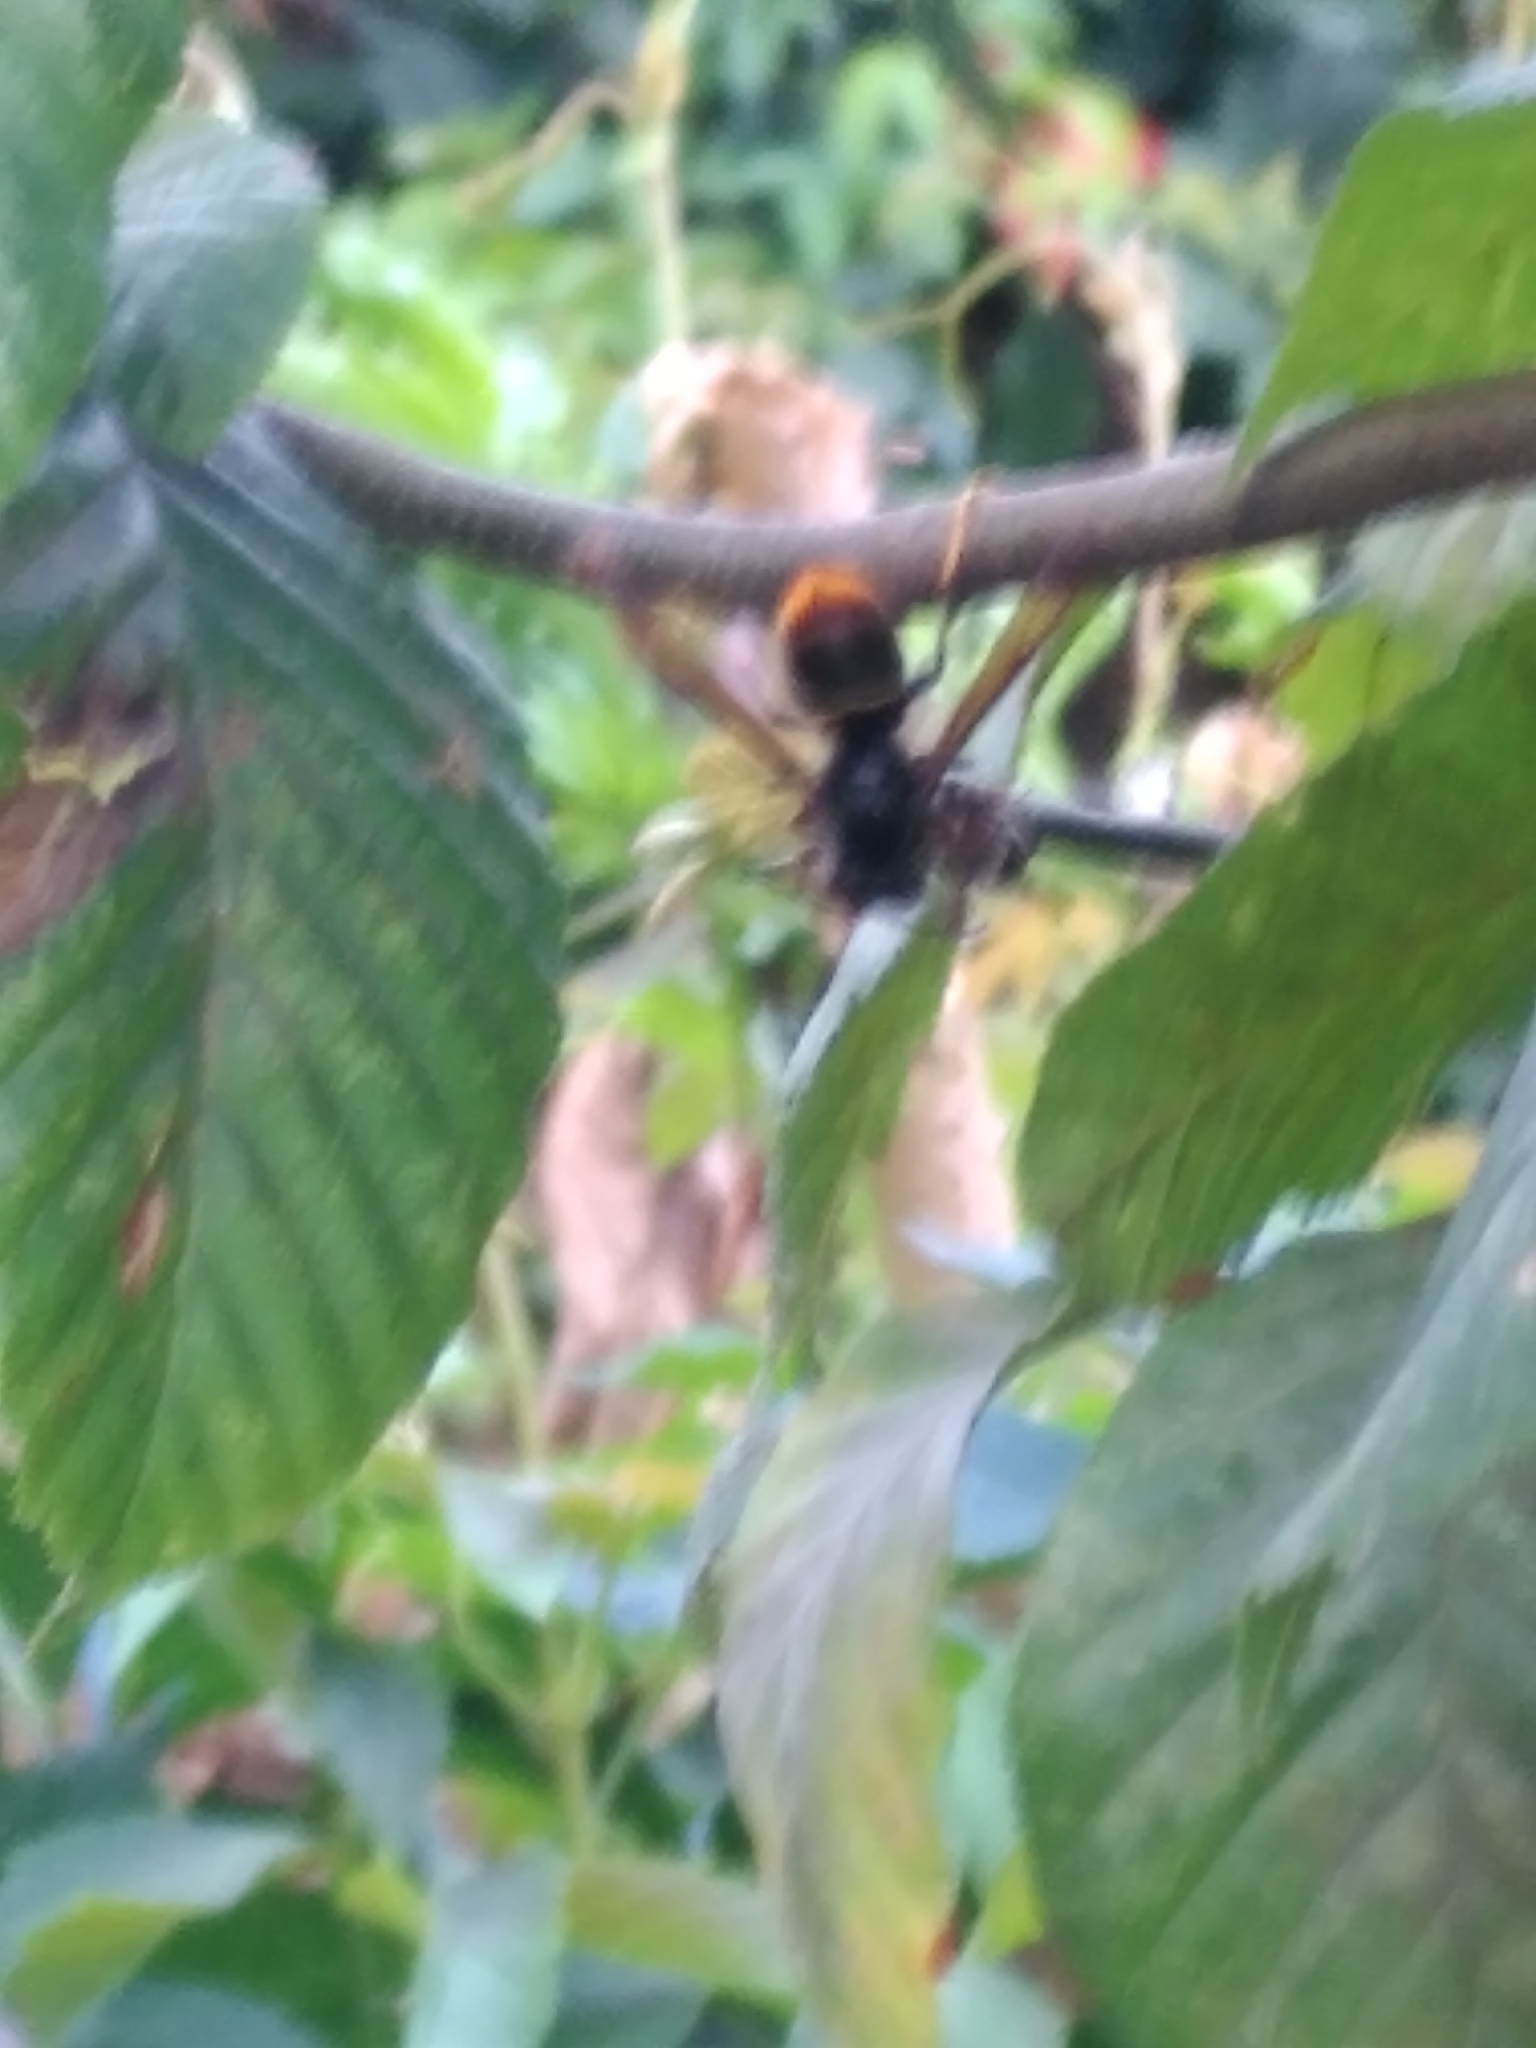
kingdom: Animalia
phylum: Arthropoda
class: Insecta
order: Hymenoptera
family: Vespidae
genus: Vespa
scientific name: Vespa velutina
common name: Asian hornet
